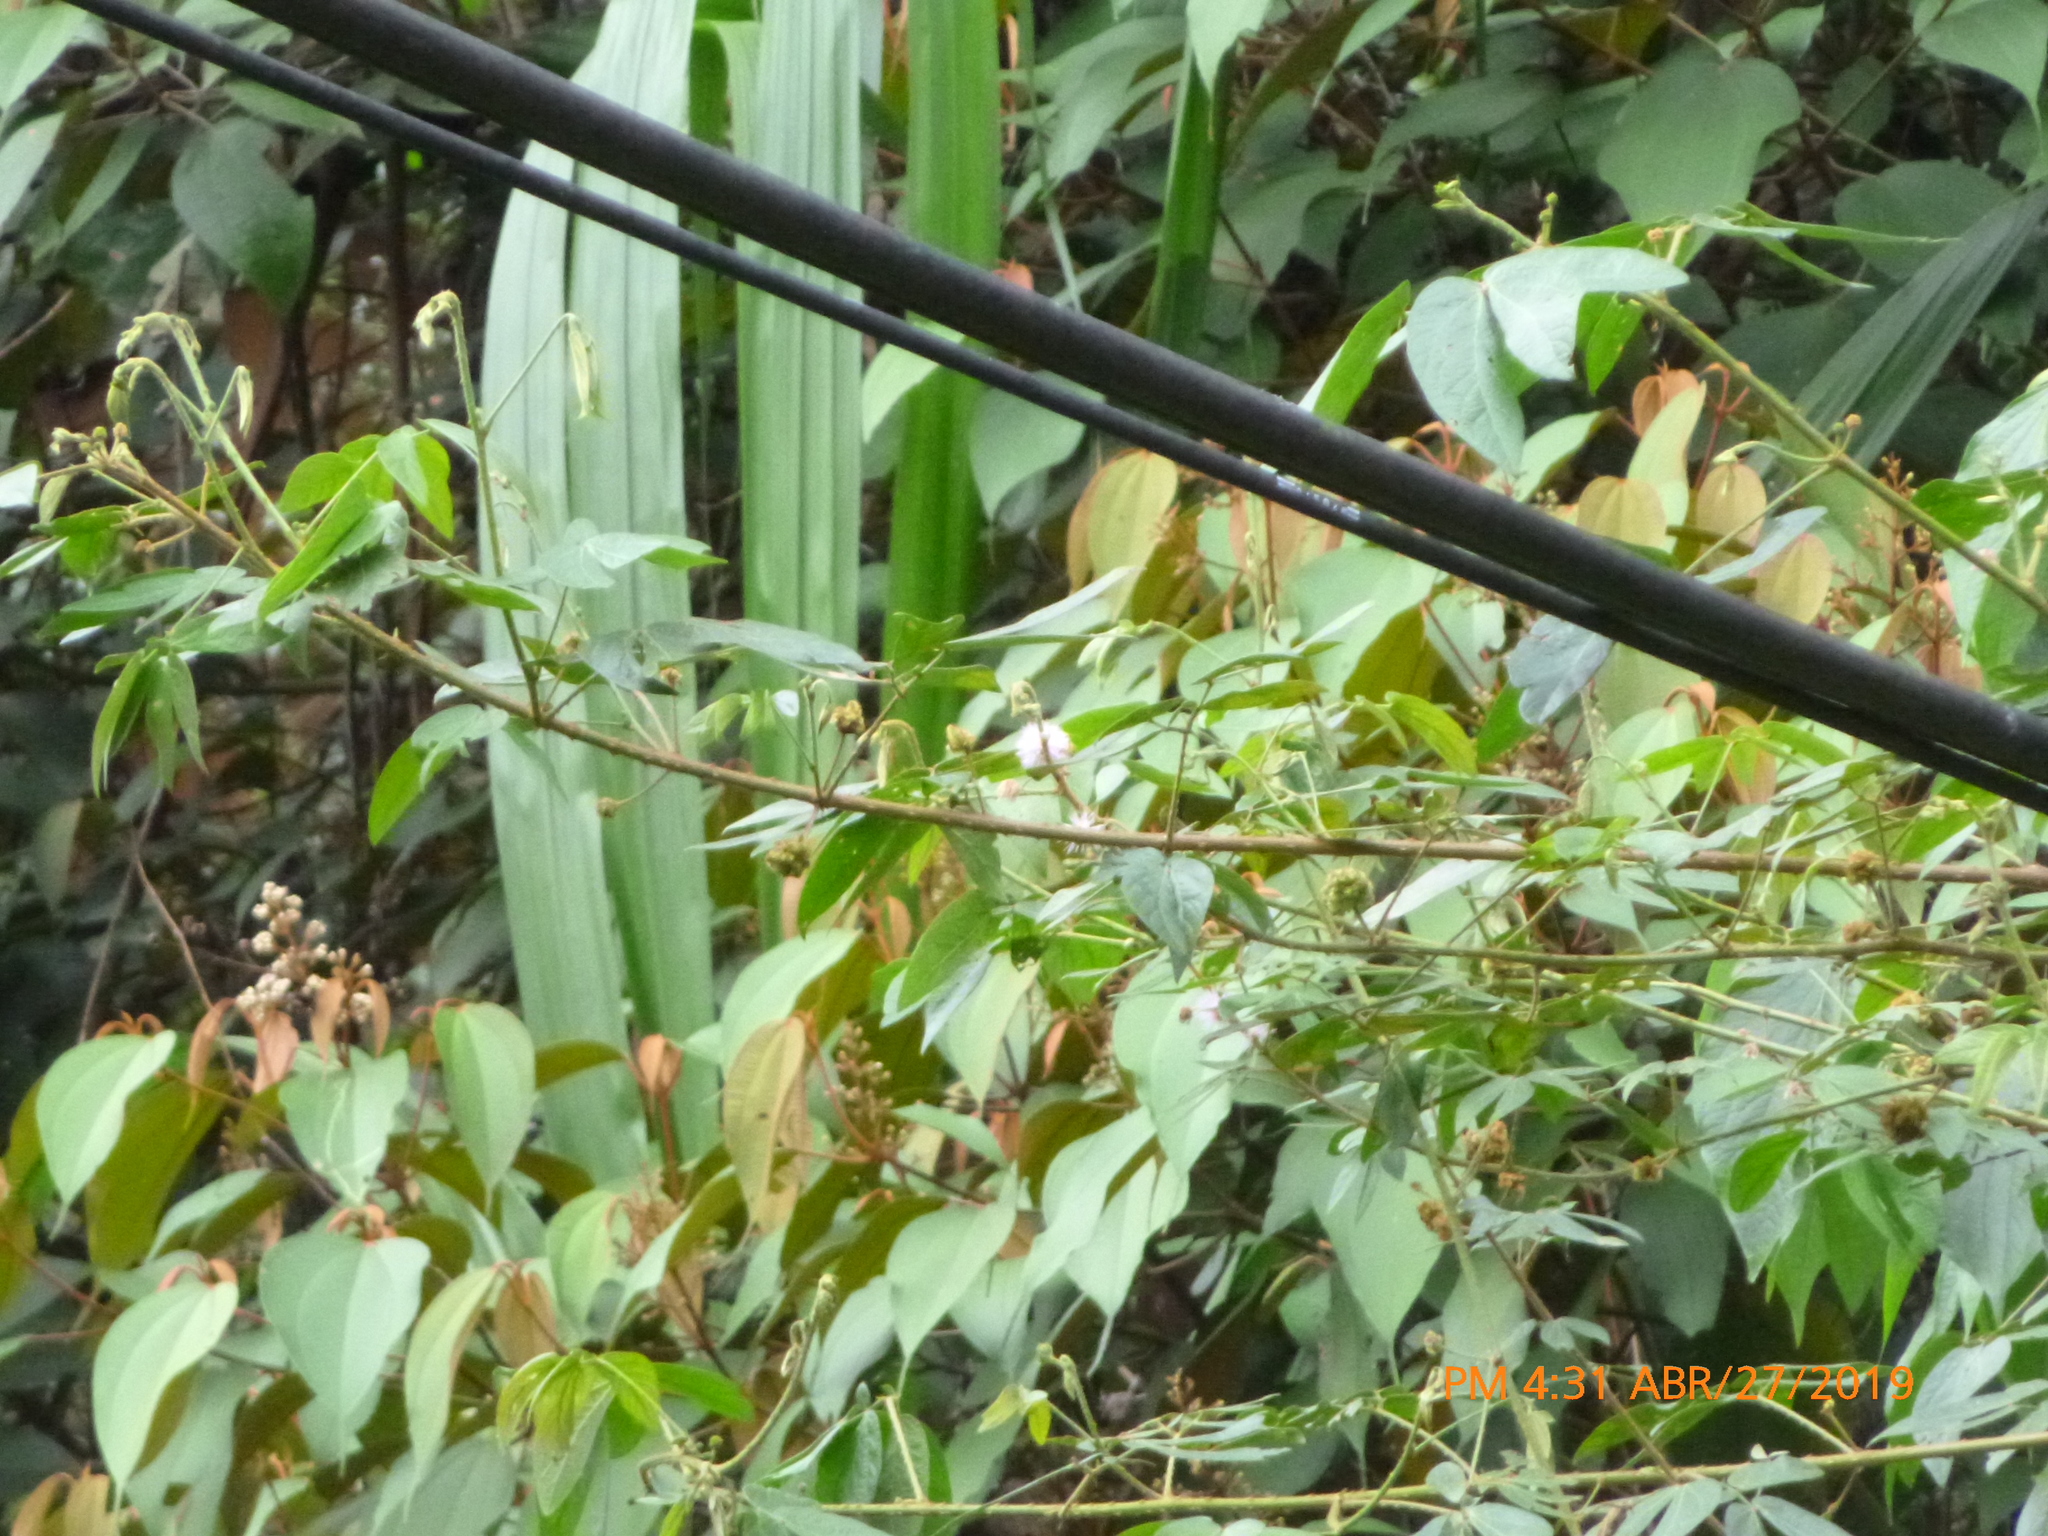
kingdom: Plantae
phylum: Tracheophyta
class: Magnoliopsida
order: Fabales
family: Fabaceae
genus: Mimosa
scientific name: Mimosa pudica
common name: Sensitive plant
